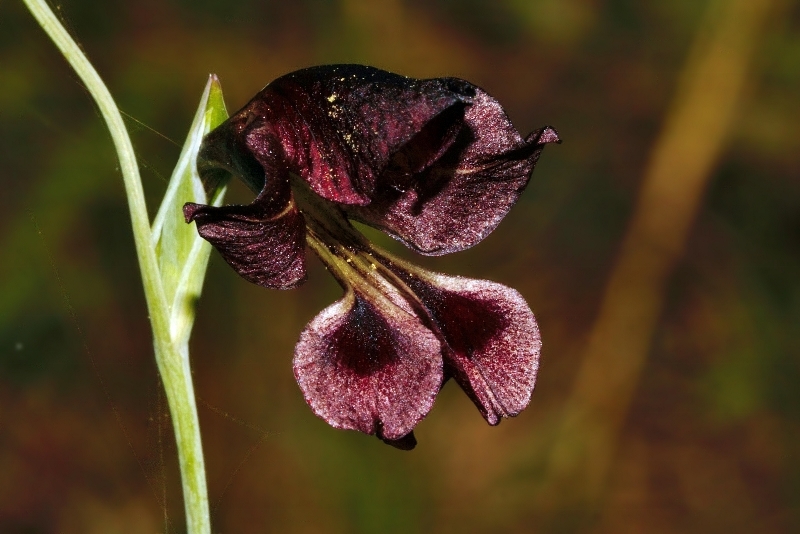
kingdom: Plantae
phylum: Tracheophyta
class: Liliopsida
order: Asparagales
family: Iridaceae
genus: Gladiolus
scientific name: Gladiolus atropurpureus
